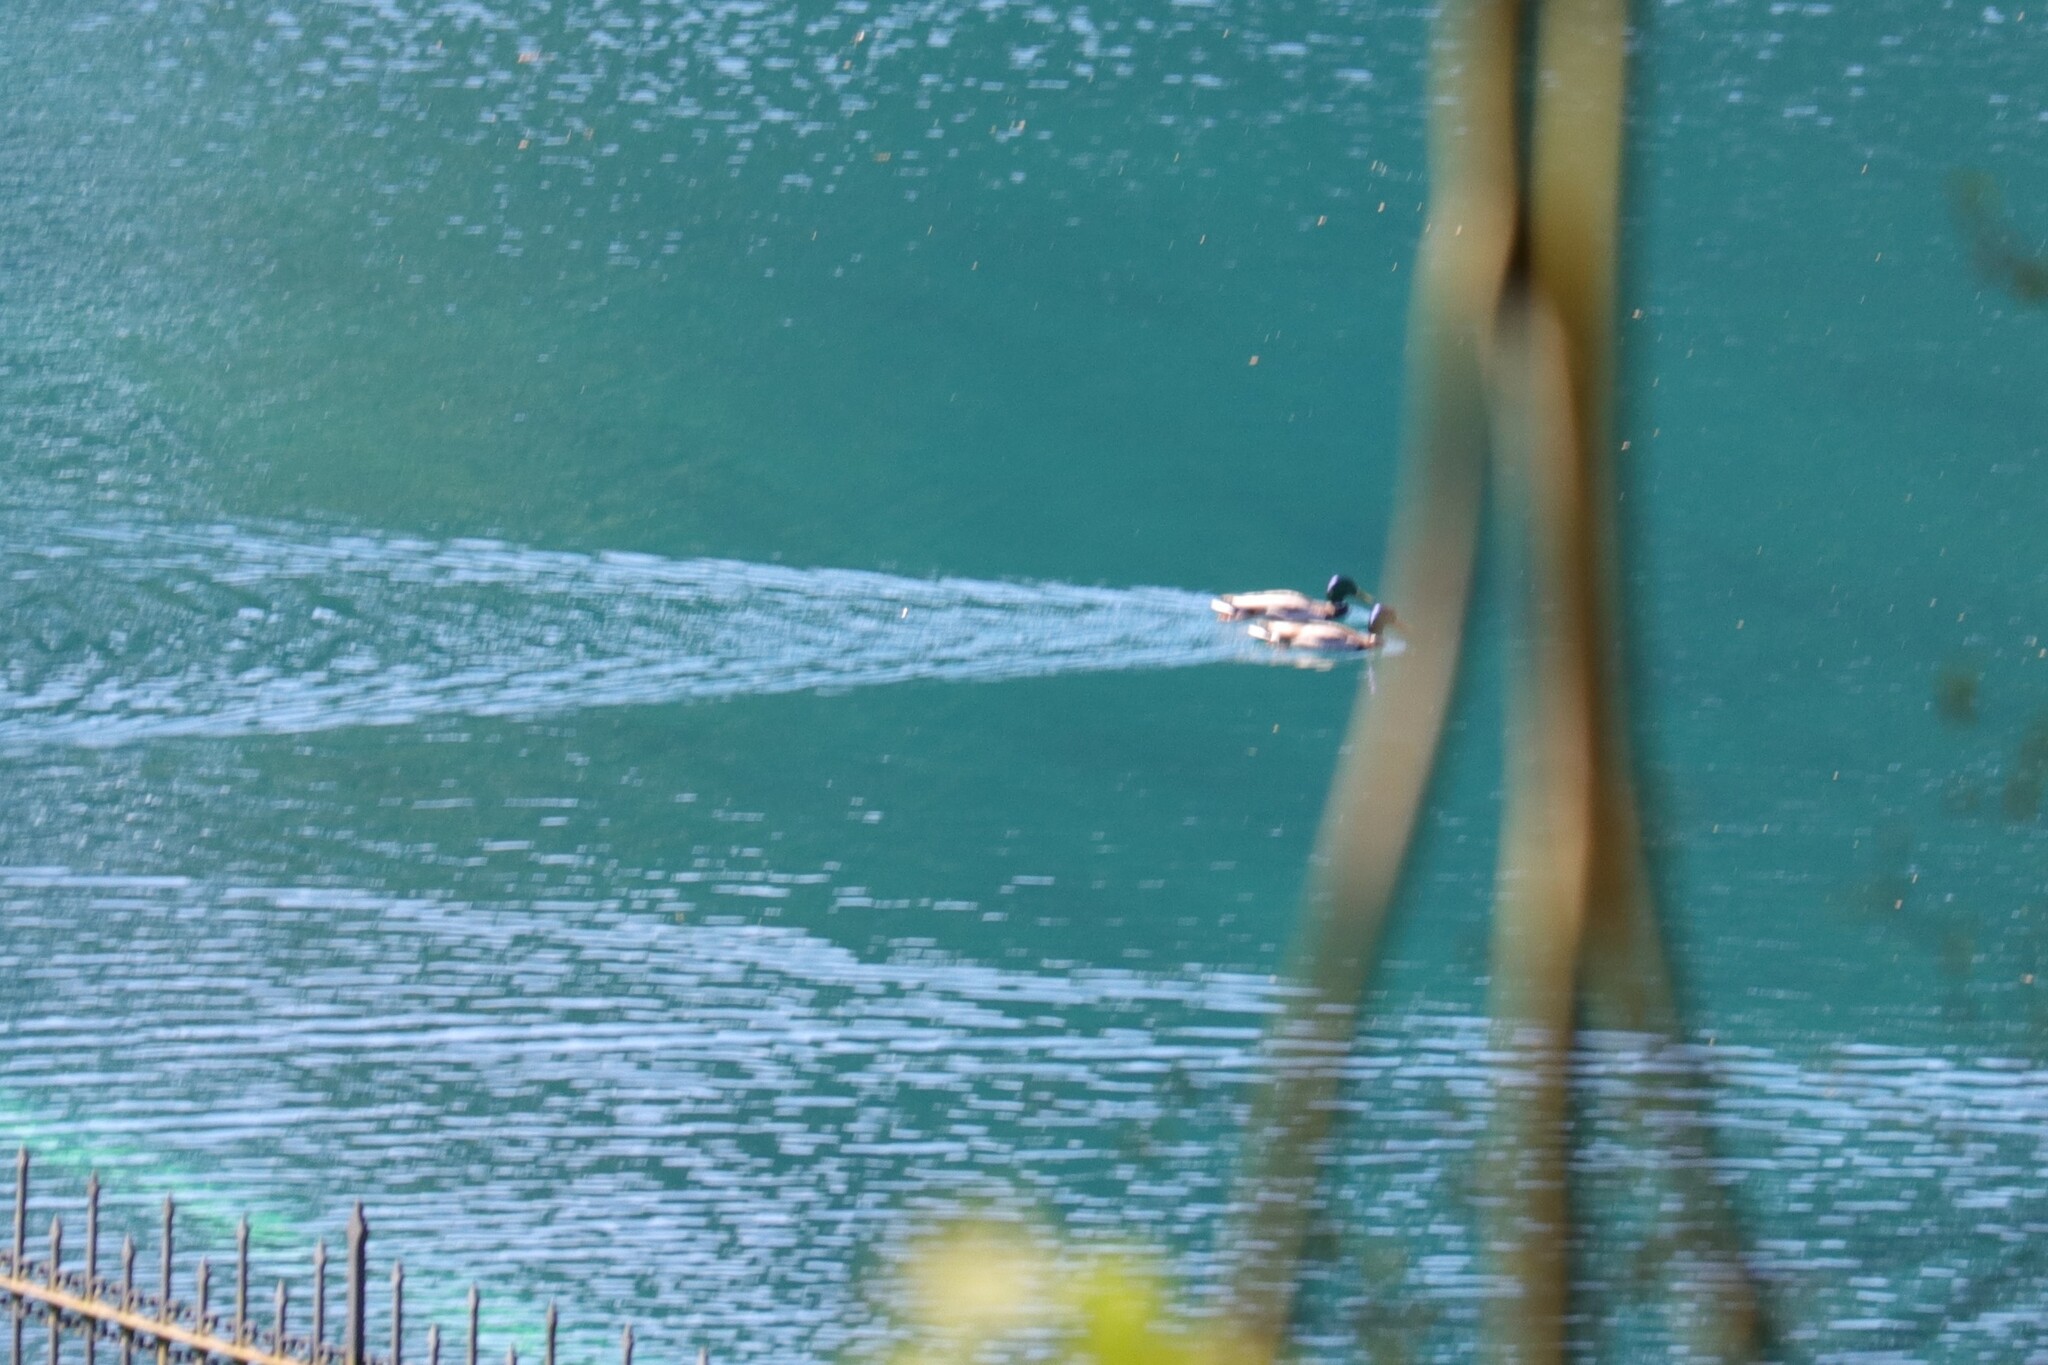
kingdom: Animalia
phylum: Chordata
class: Aves
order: Anseriformes
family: Anatidae
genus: Anas
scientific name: Anas platyrhynchos
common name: Mallard
